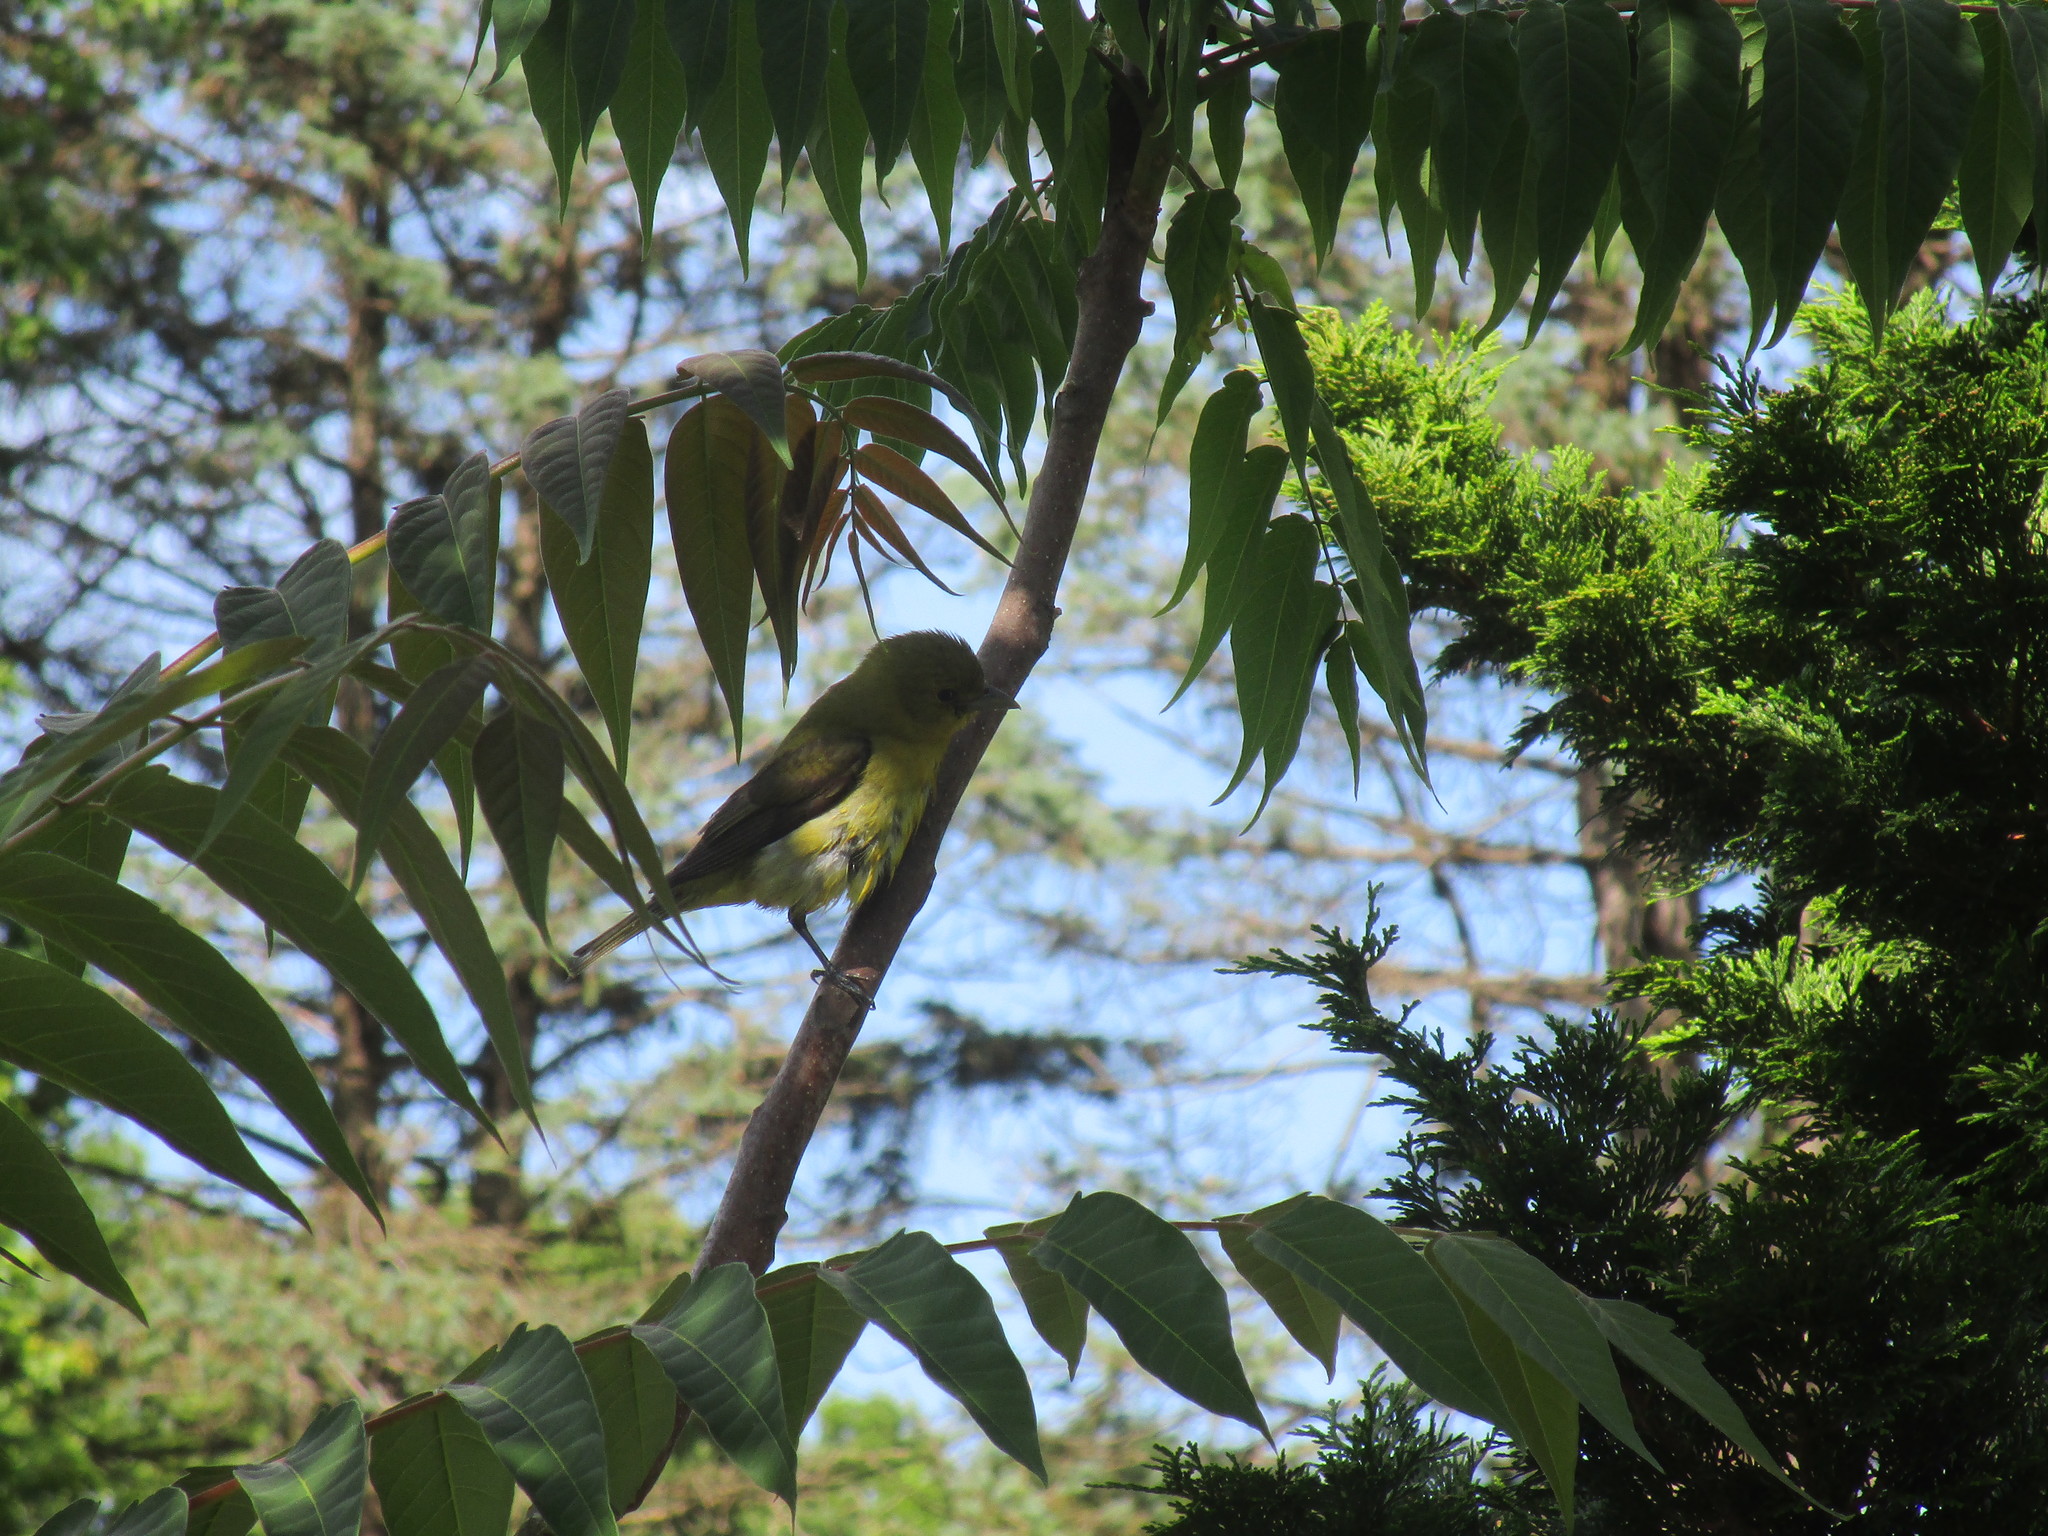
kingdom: Animalia
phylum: Chordata
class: Aves
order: Passeriformes
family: Cardinalidae
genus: Piranga
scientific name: Piranga olivacea
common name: Scarlet tanager
